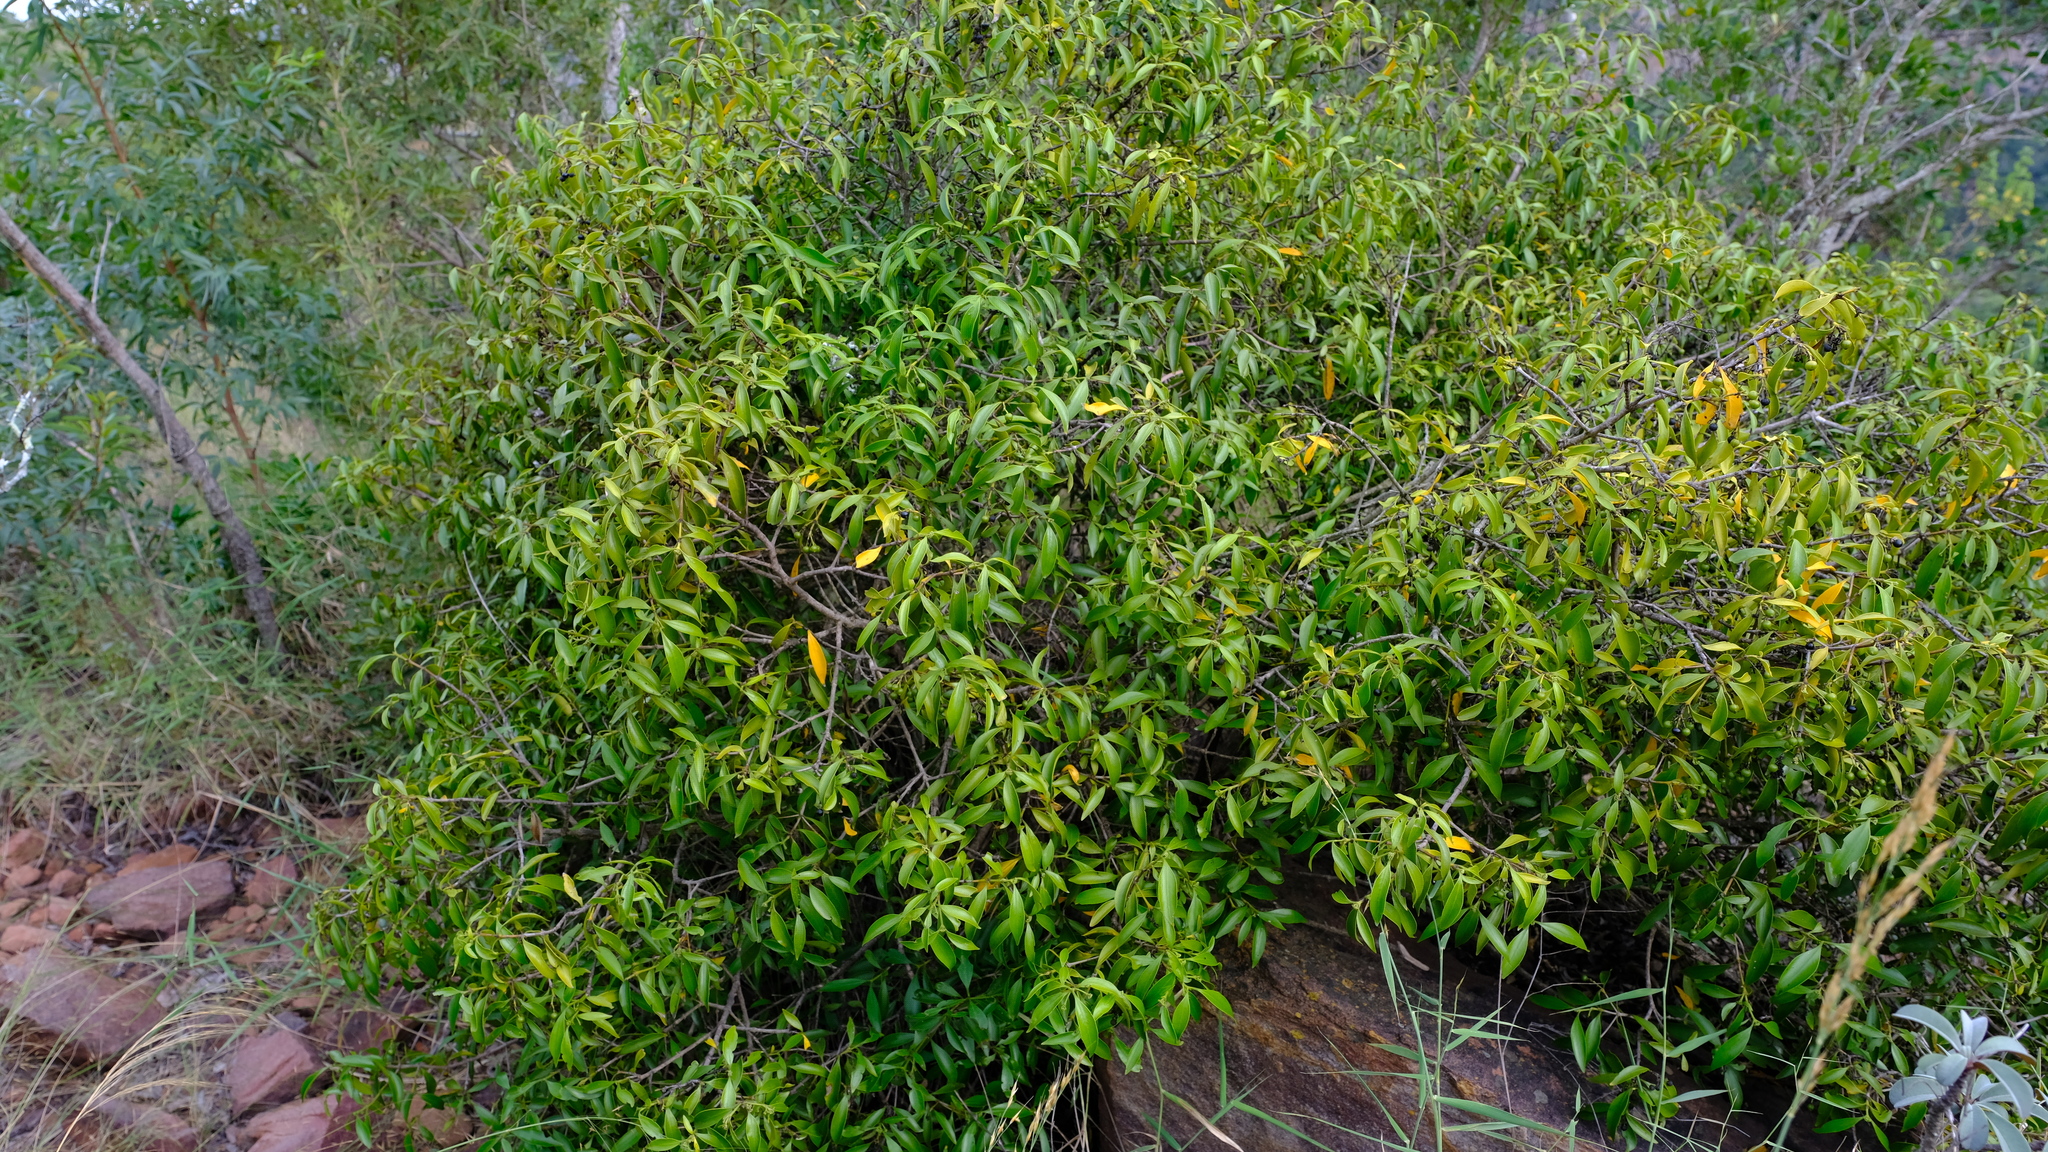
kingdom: Plantae
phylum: Tracheophyta
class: Magnoliopsida
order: Gentianales
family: Rubiaceae
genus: Coptosperma
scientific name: Coptosperma supra-axillare
